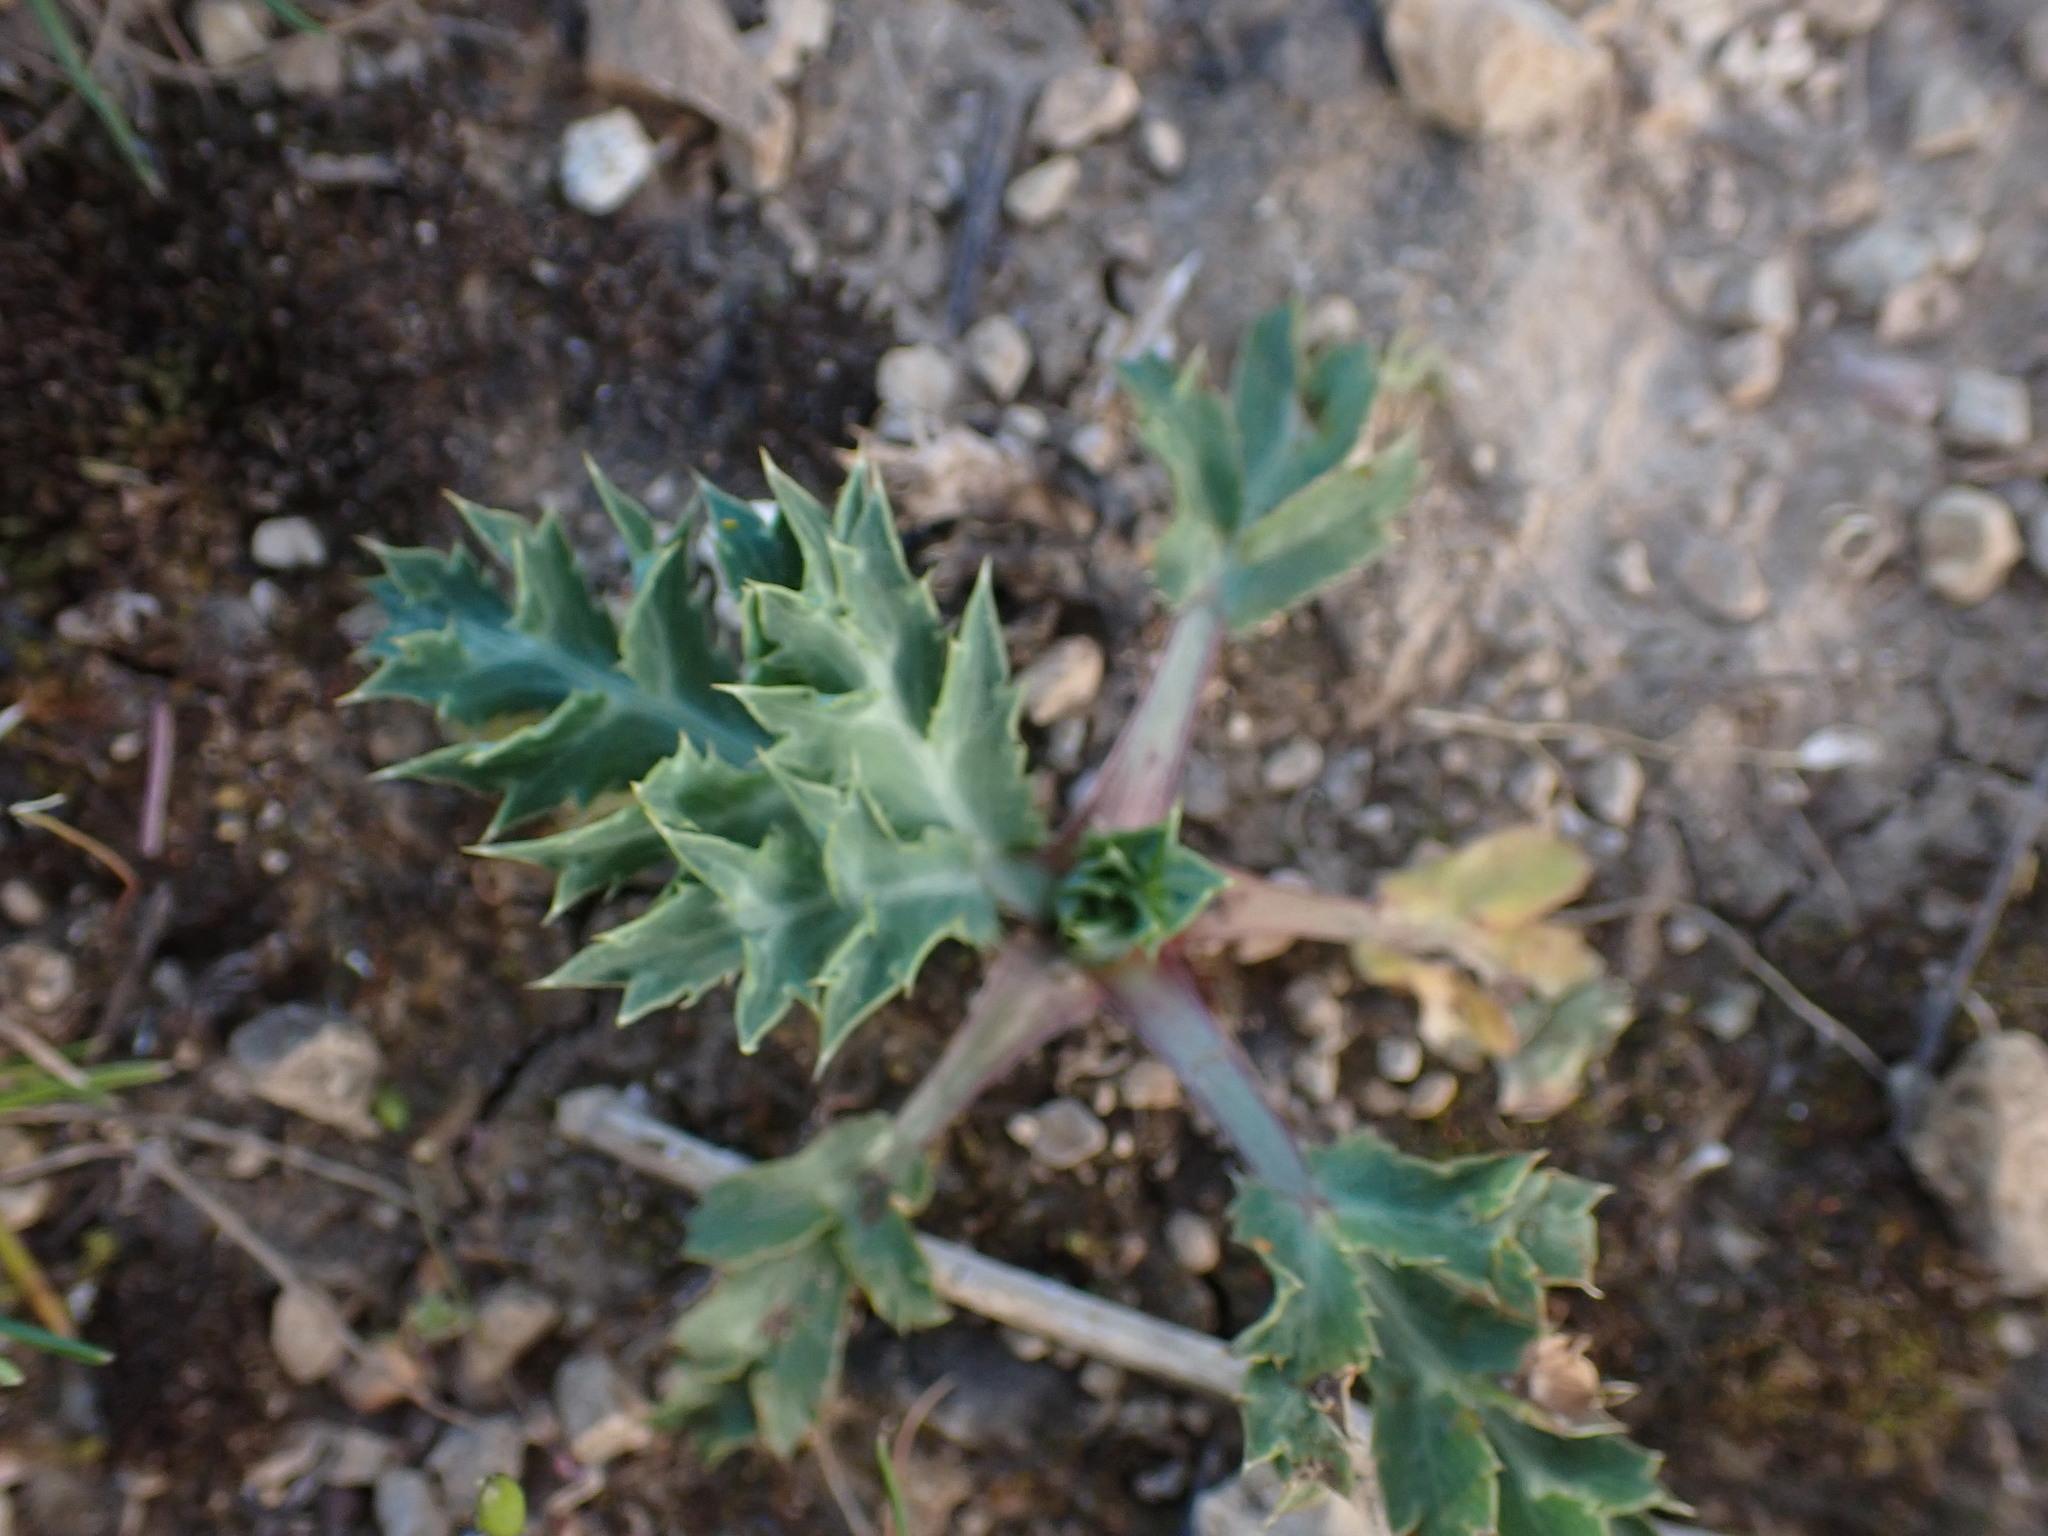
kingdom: Plantae
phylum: Tracheophyta
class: Magnoliopsida
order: Apiales
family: Apiaceae
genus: Eryngium
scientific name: Eryngium campestre
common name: Field eryngo
